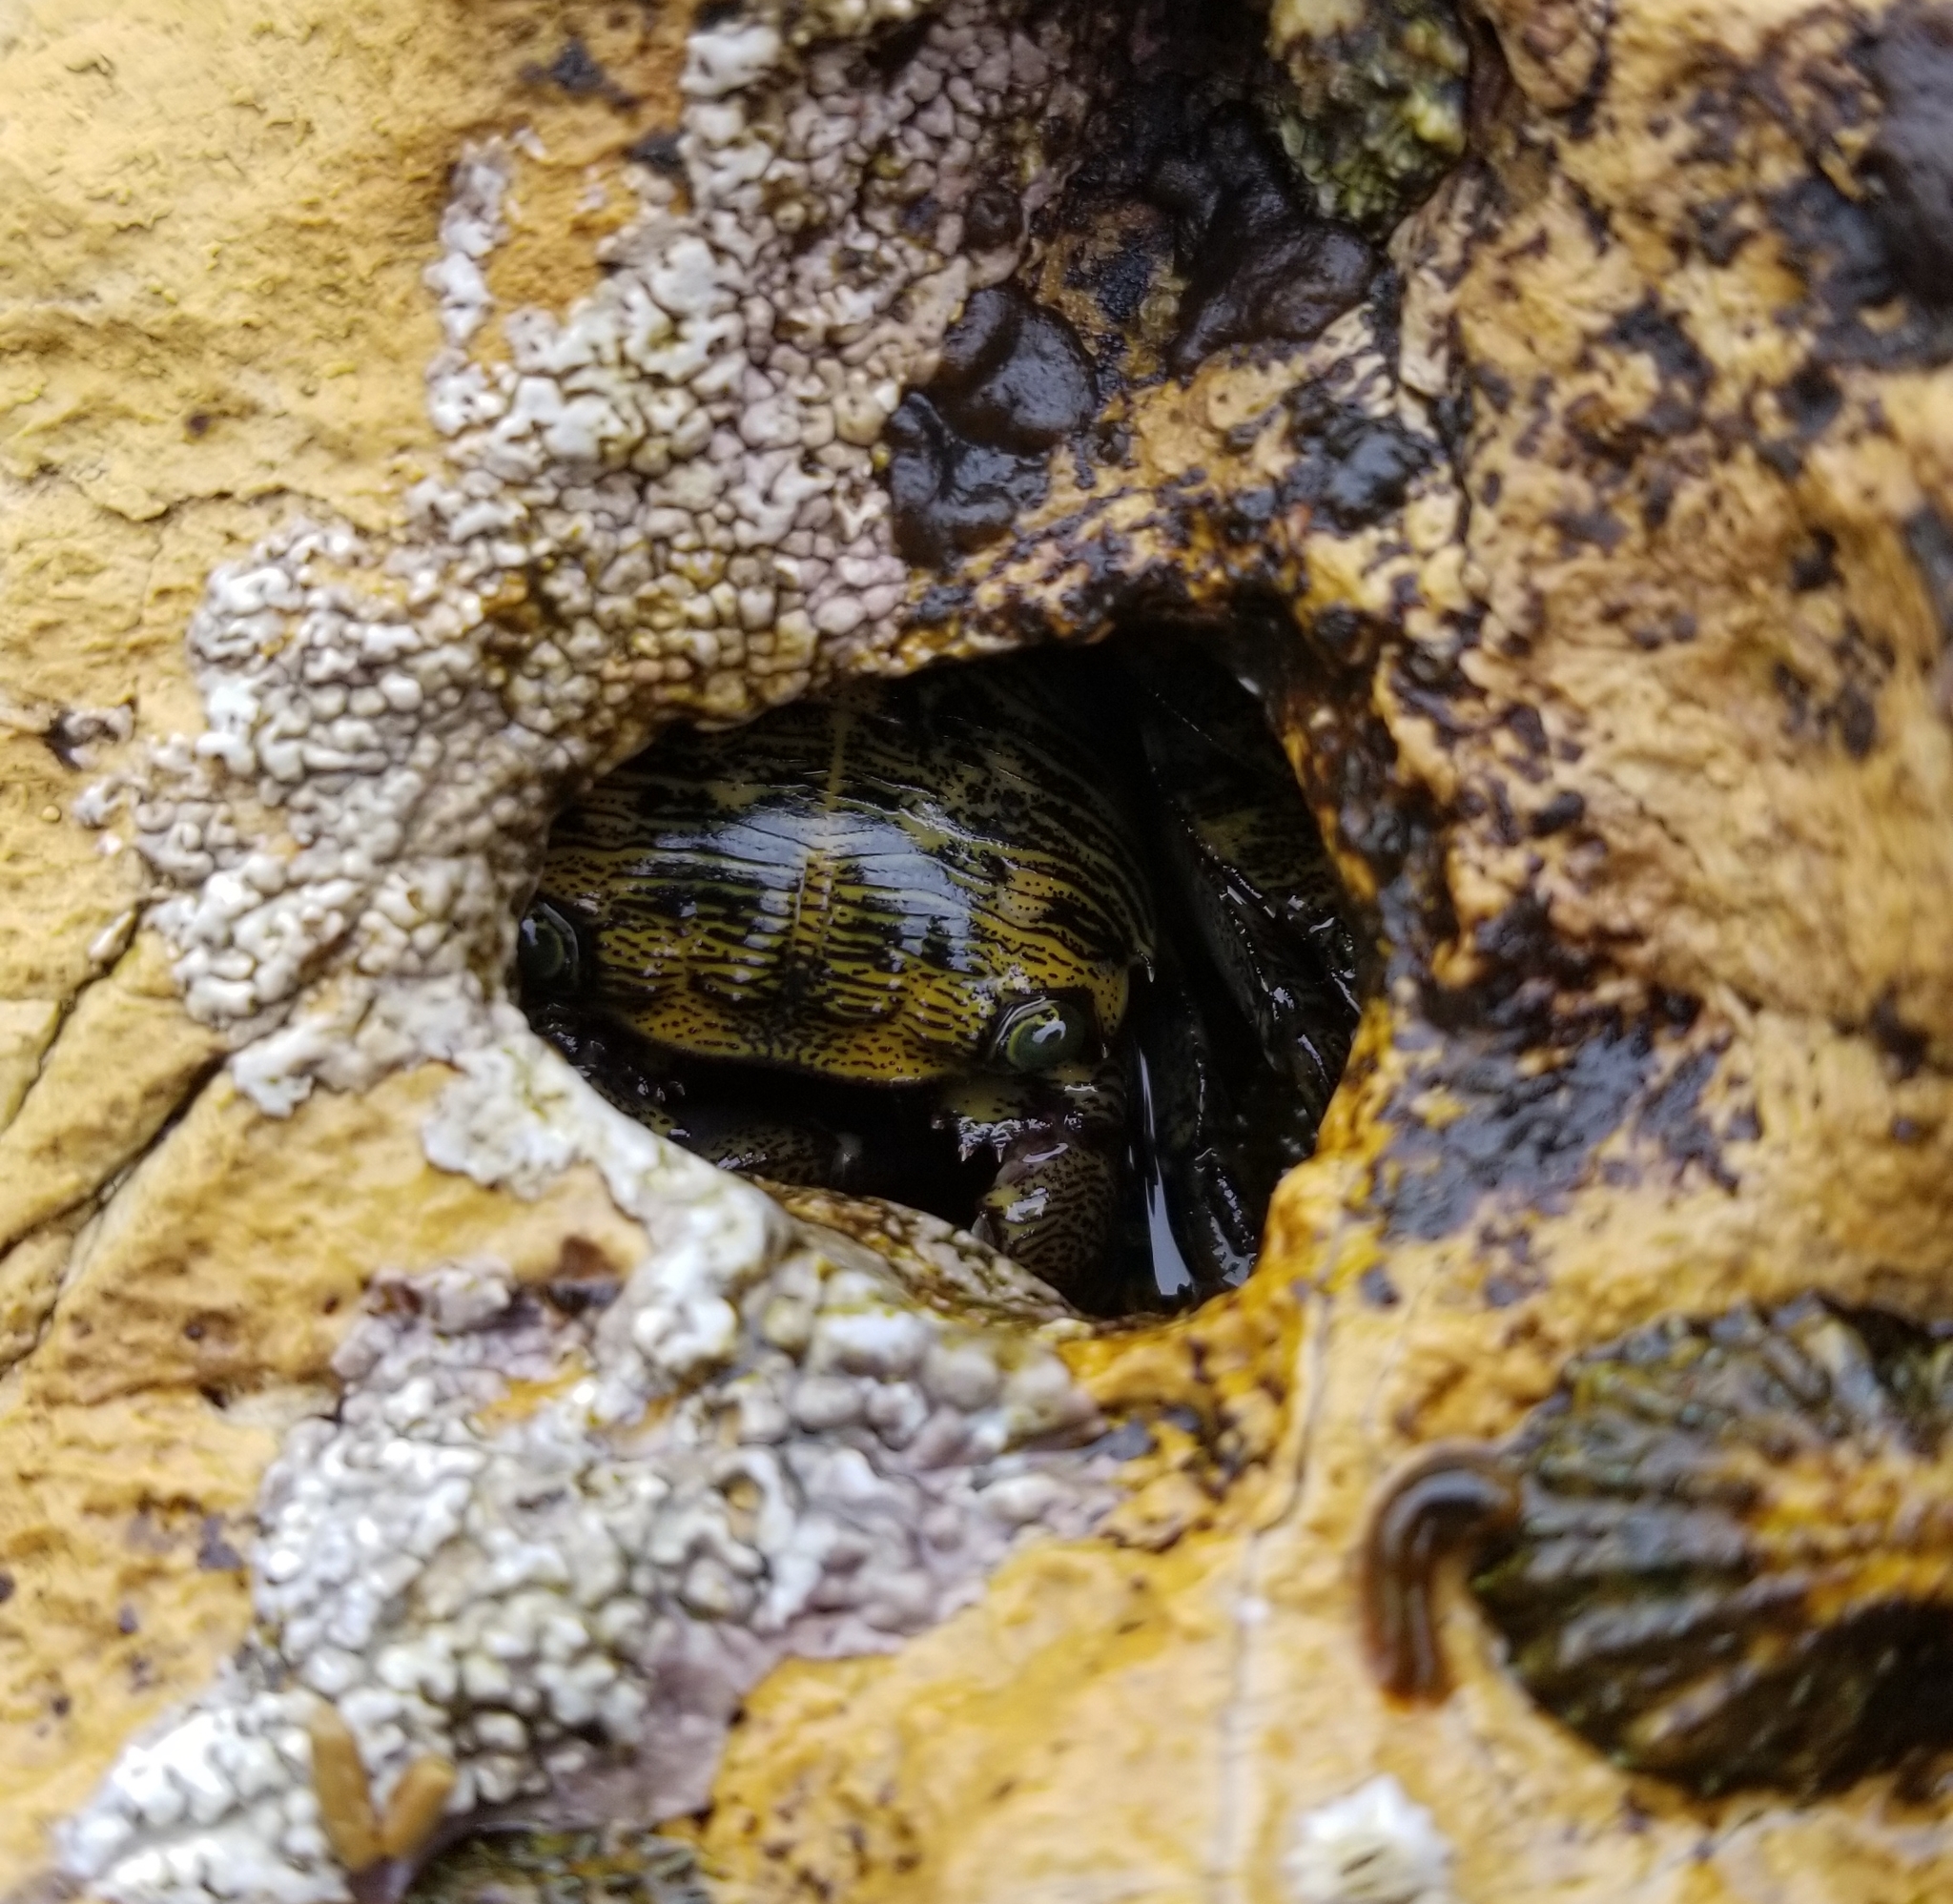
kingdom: Animalia
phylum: Arthropoda
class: Malacostraca
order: Decapoda
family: Grapsidae
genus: Pachygrapsus
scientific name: Pachygrapsus crassipes
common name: Striped shore crab
